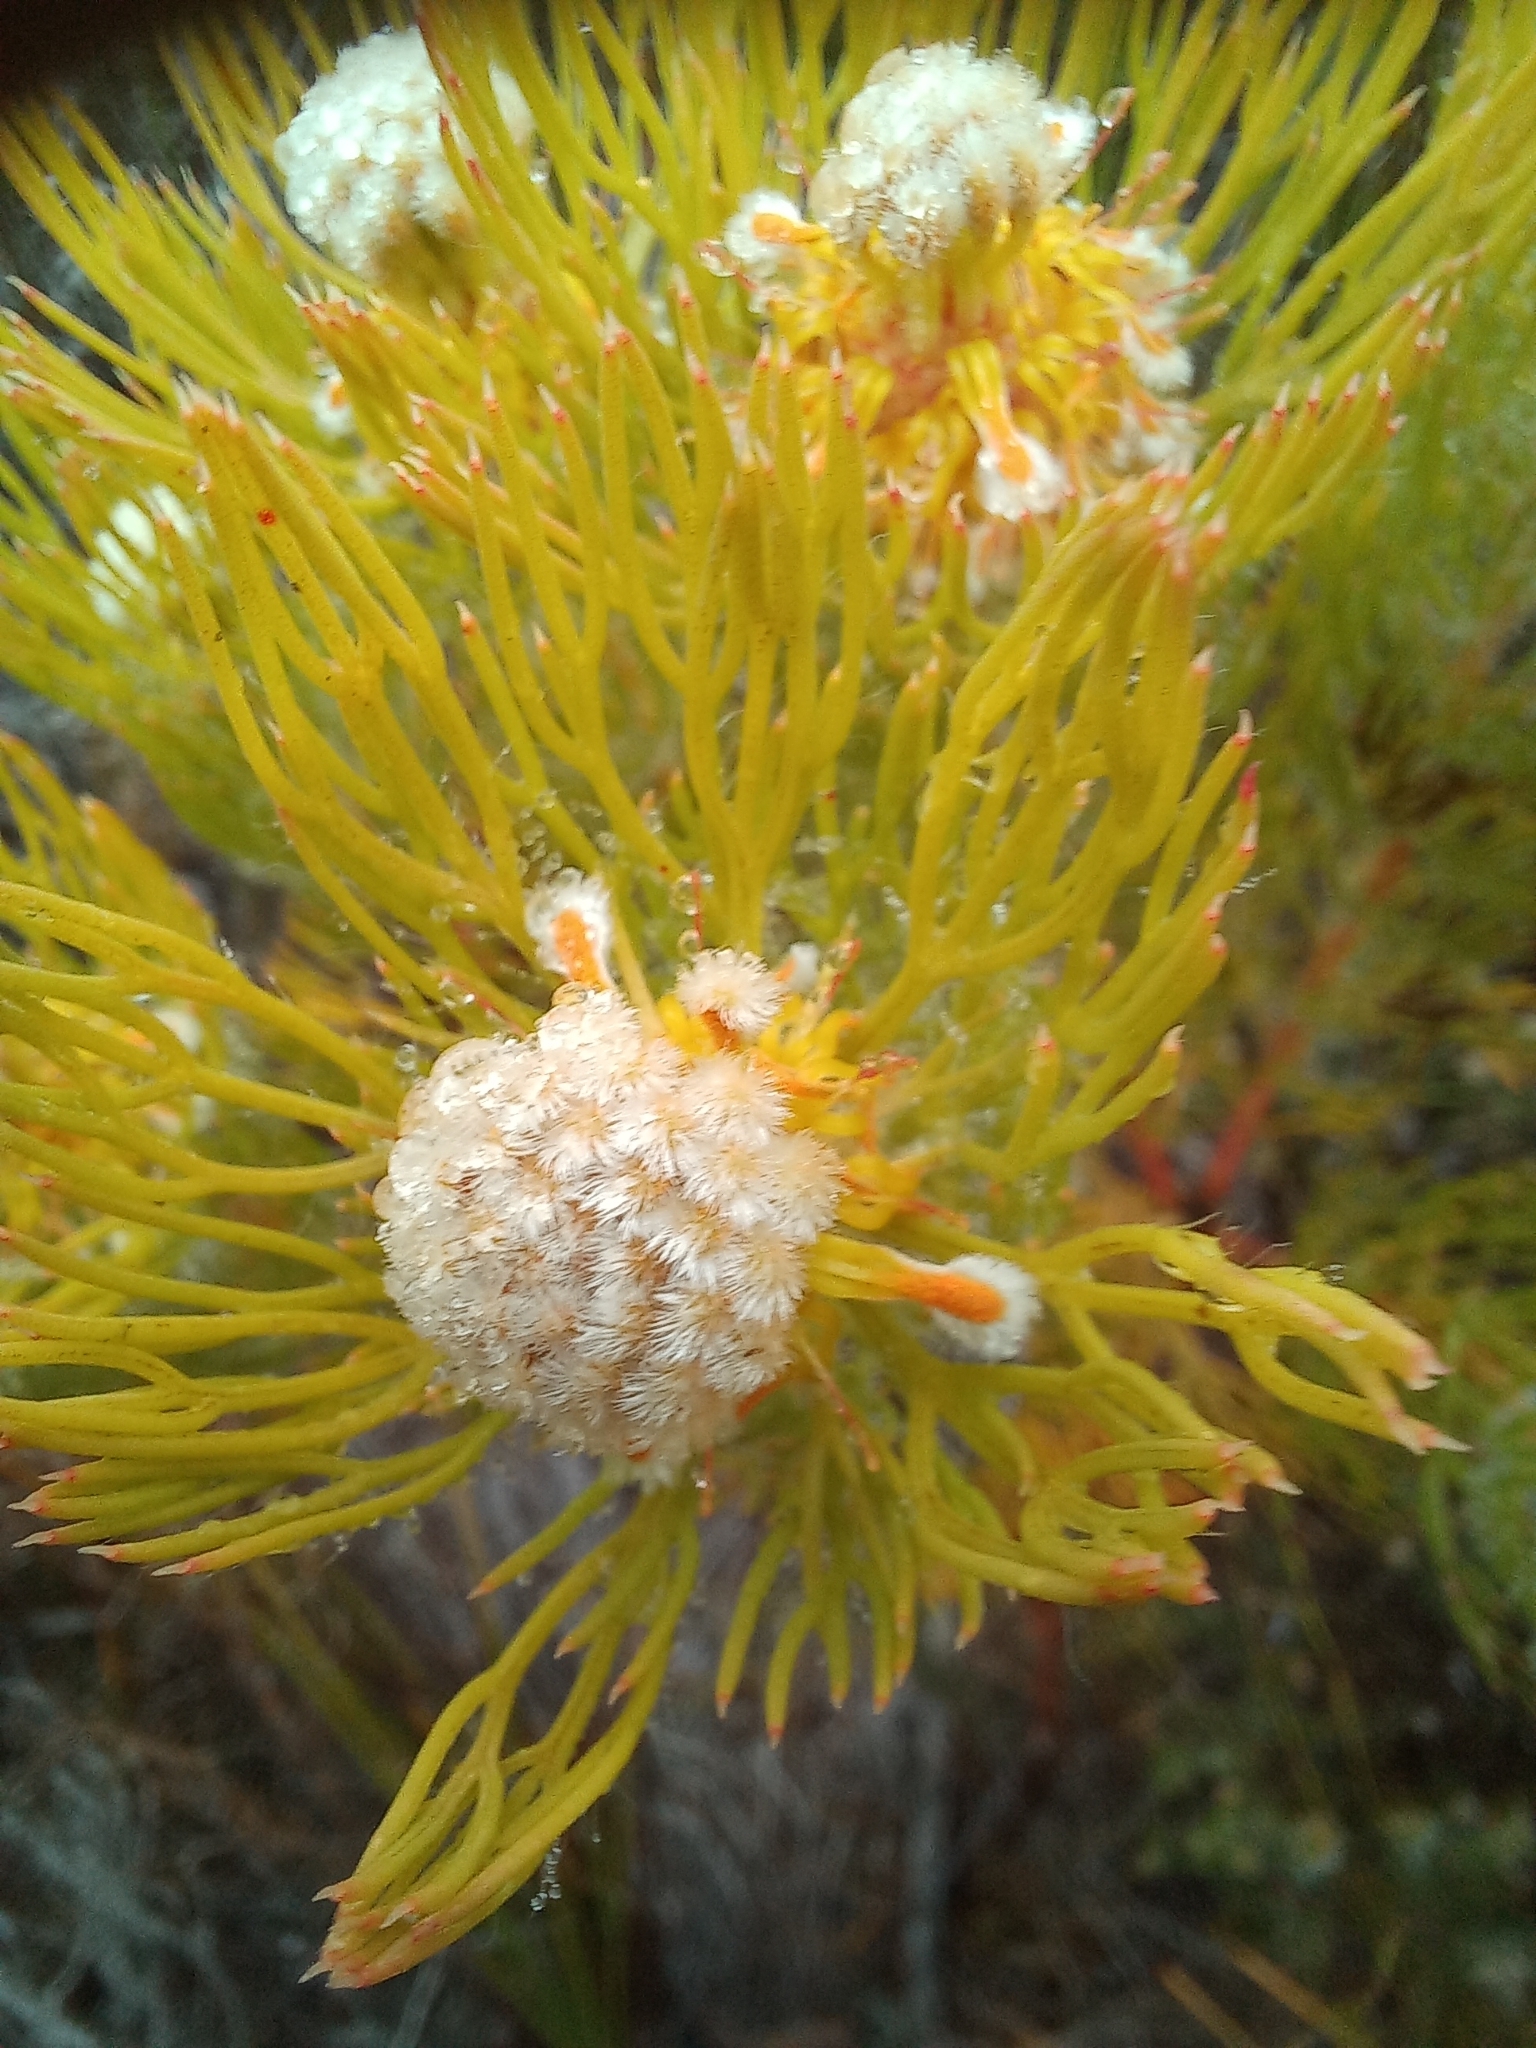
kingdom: Plantae
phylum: Tracheophyta
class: Magnoliopsida
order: Proteales
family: Proteaceae
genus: Serruria
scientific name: Serruria villosa
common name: Golden spiderhead
